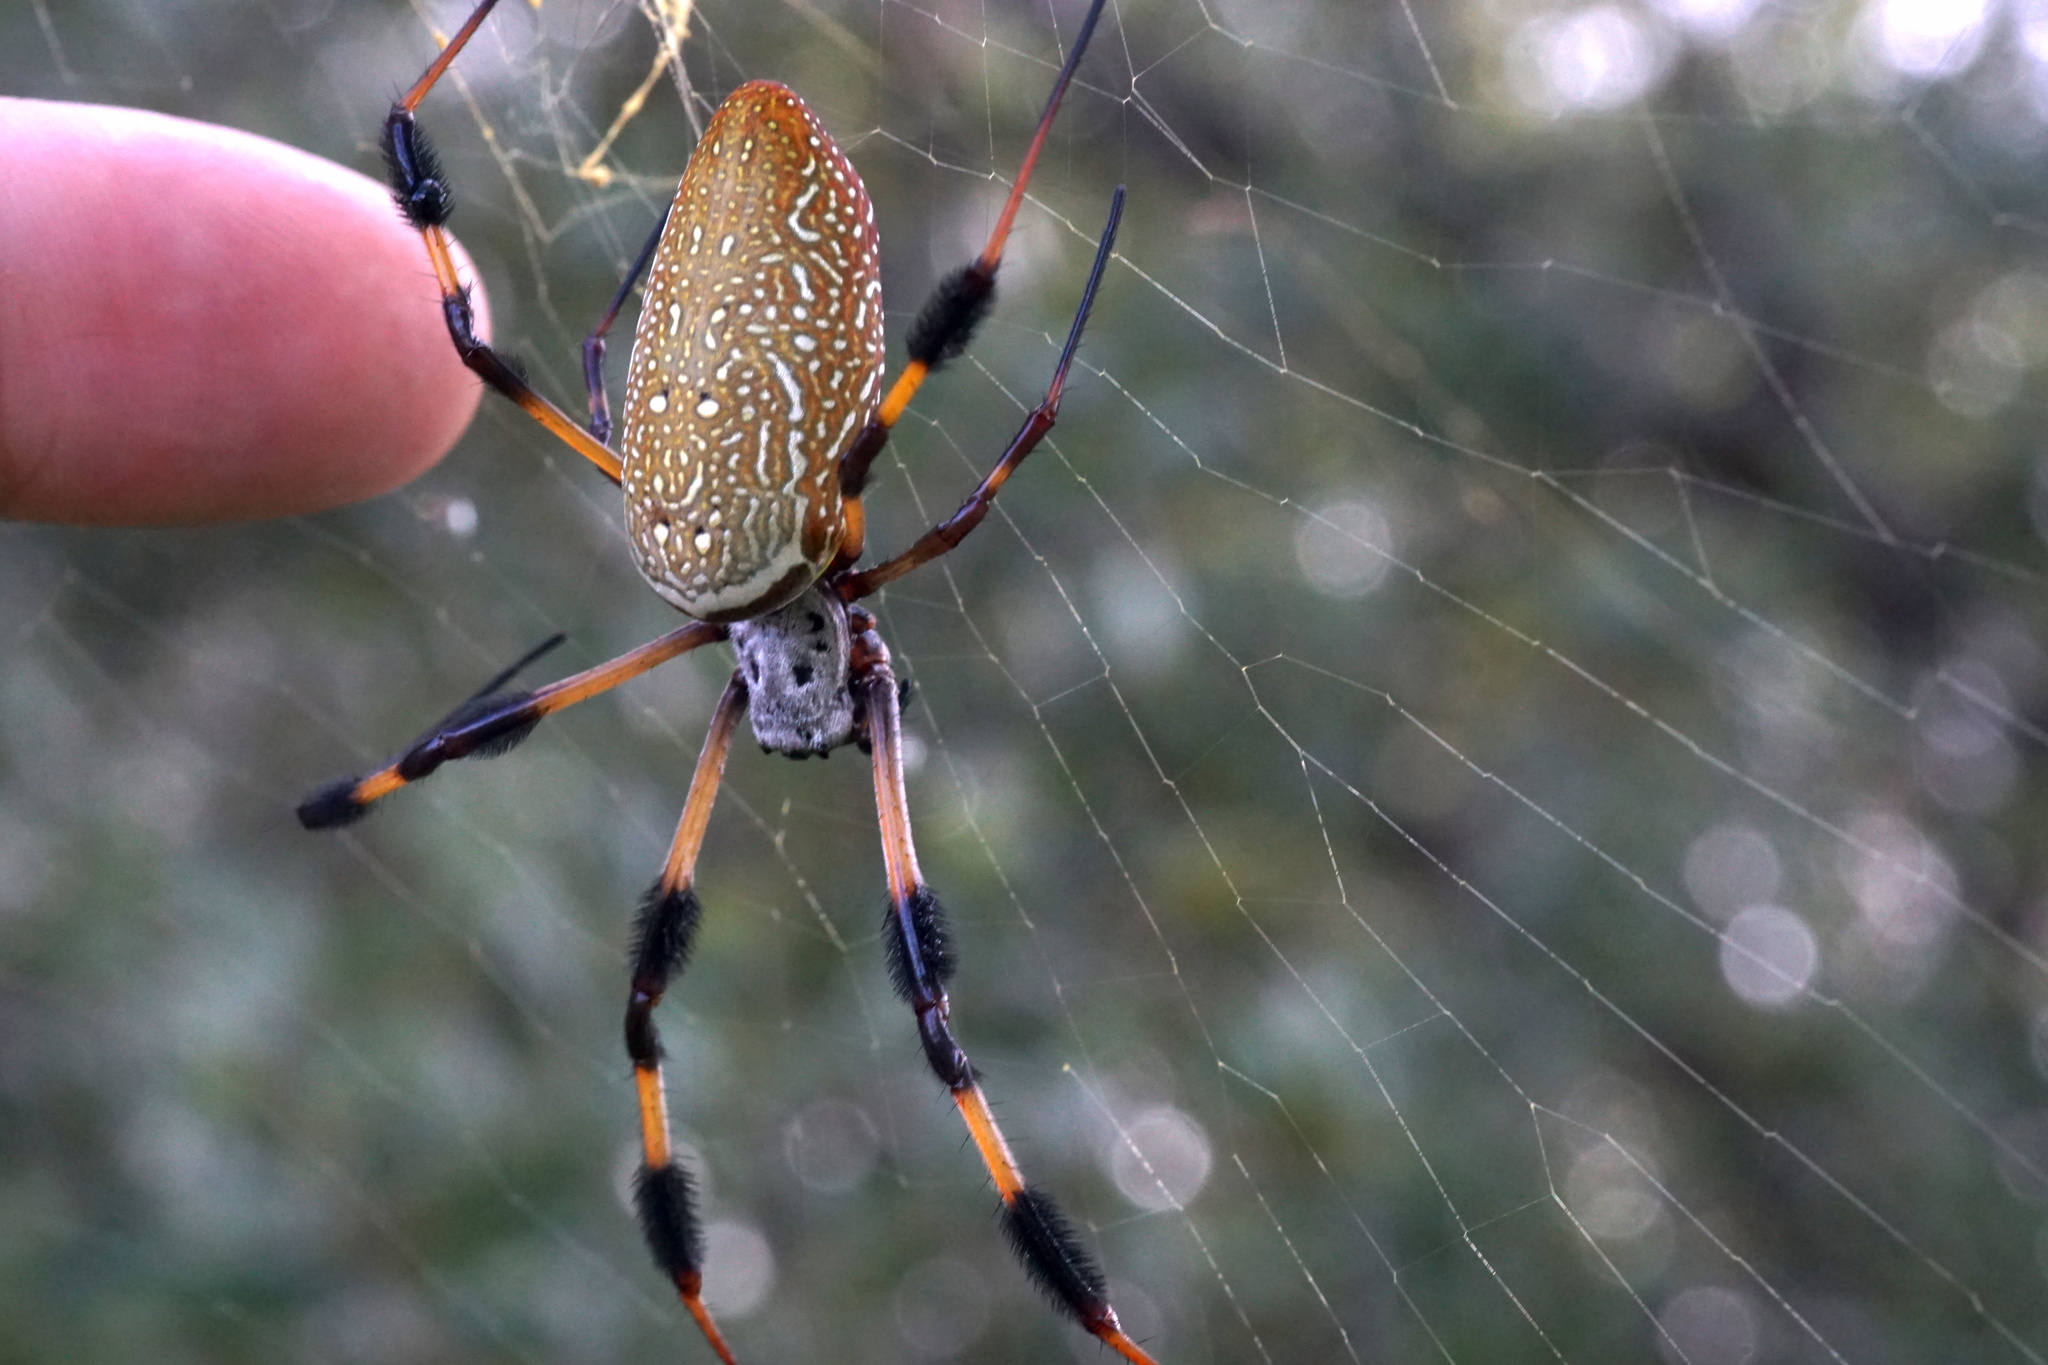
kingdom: Animalia
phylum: Arthropoda
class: Arachnida
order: Araneae
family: Araneidae
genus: Trichonephila
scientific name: Trichonephila clavipes
